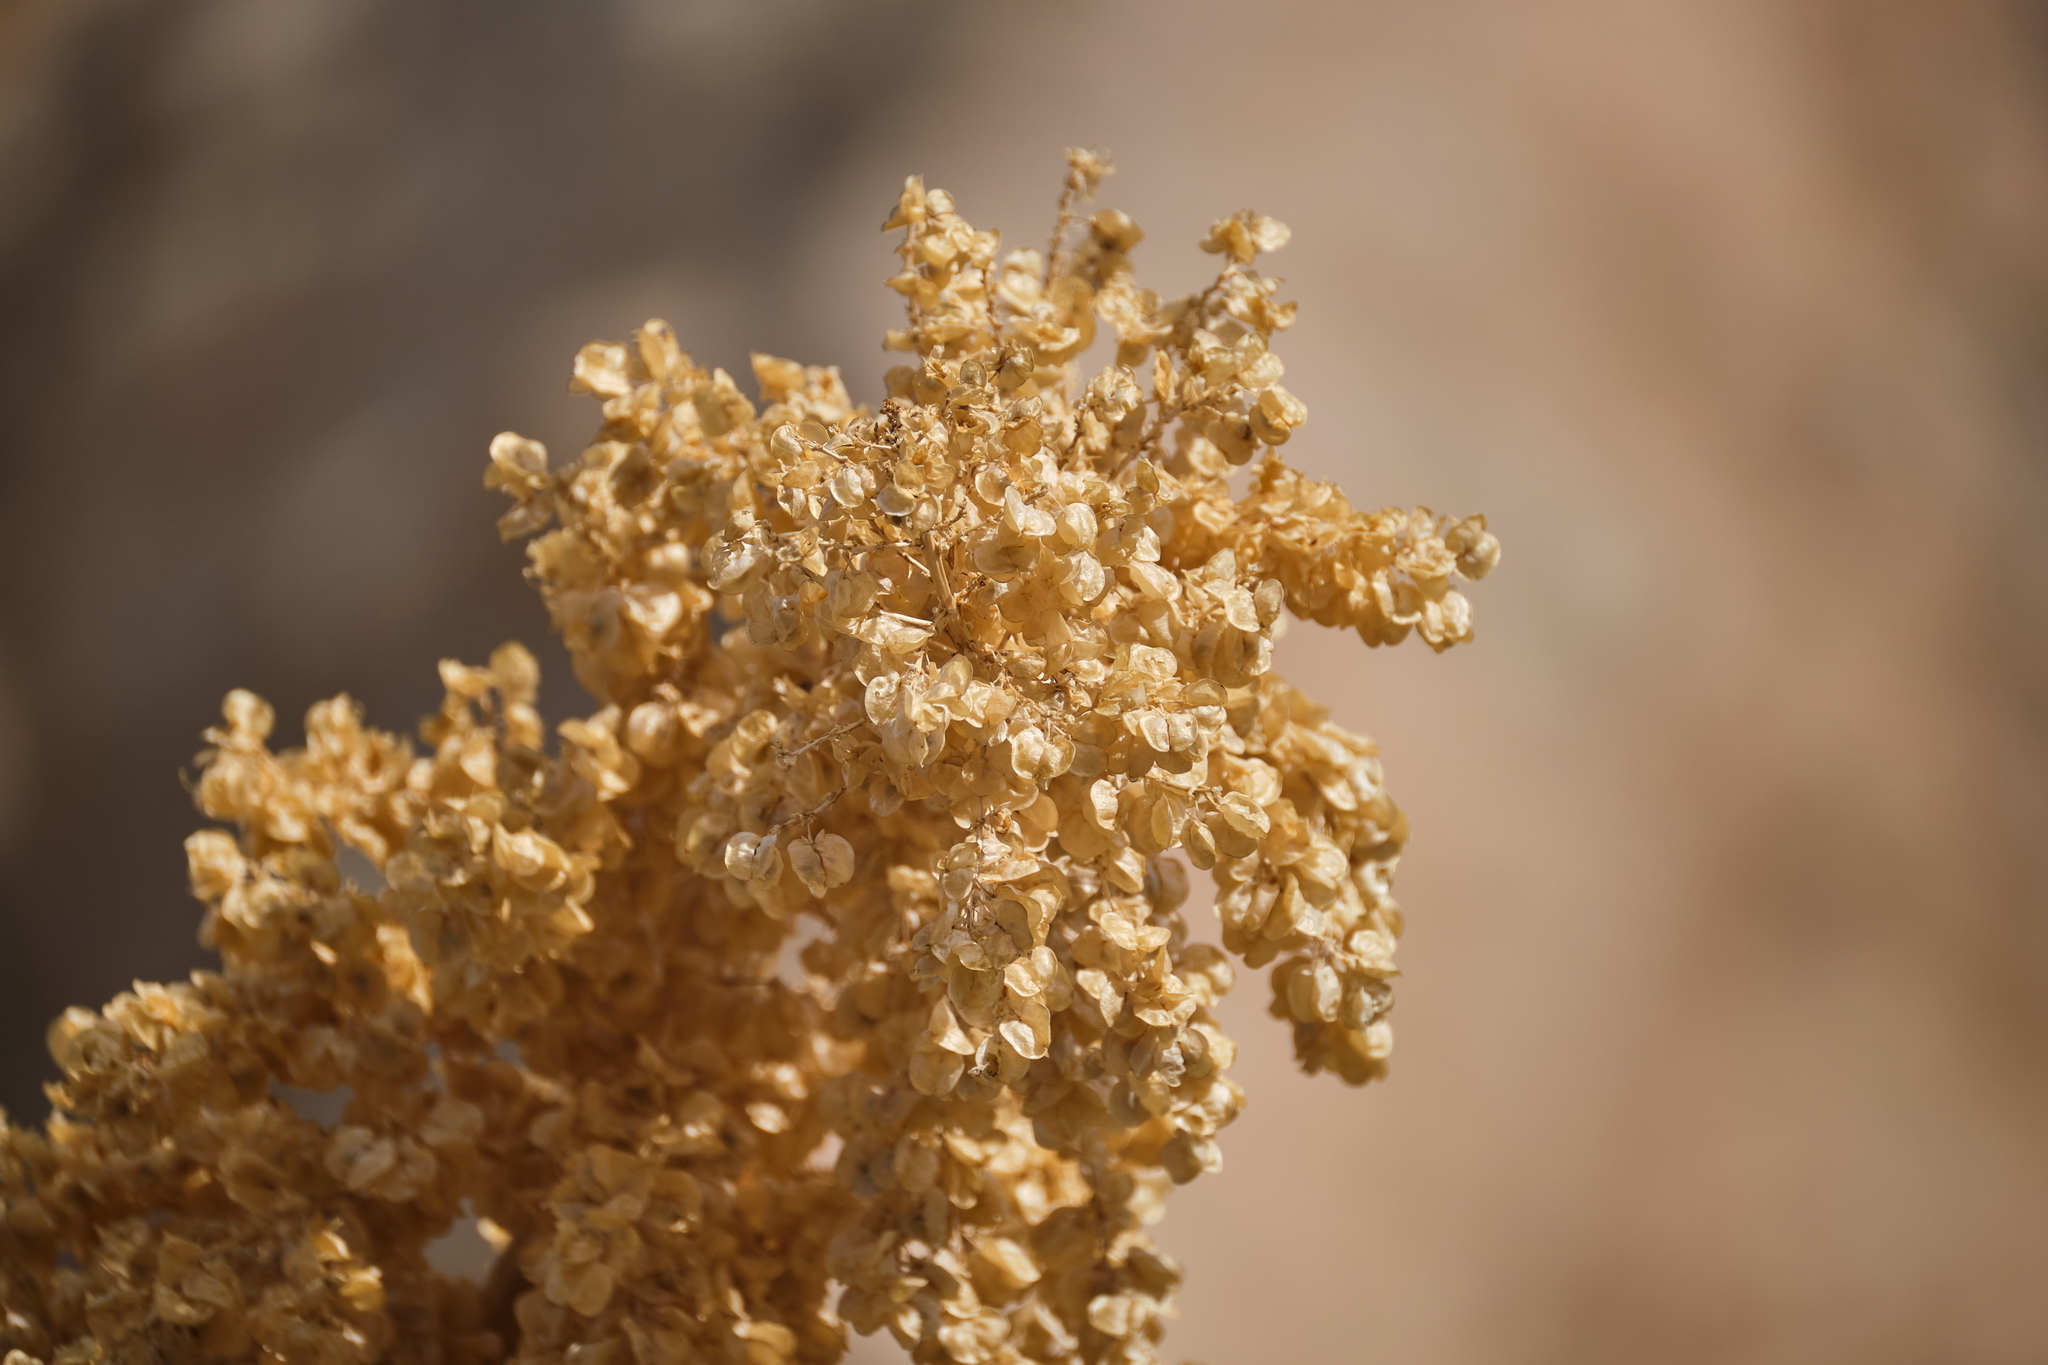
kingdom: Plantae
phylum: Tracheophyta
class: Liliopsida
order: Asparagales
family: Asparagaceae
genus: Nolina
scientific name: Nolina parryi
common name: Parry nolina
